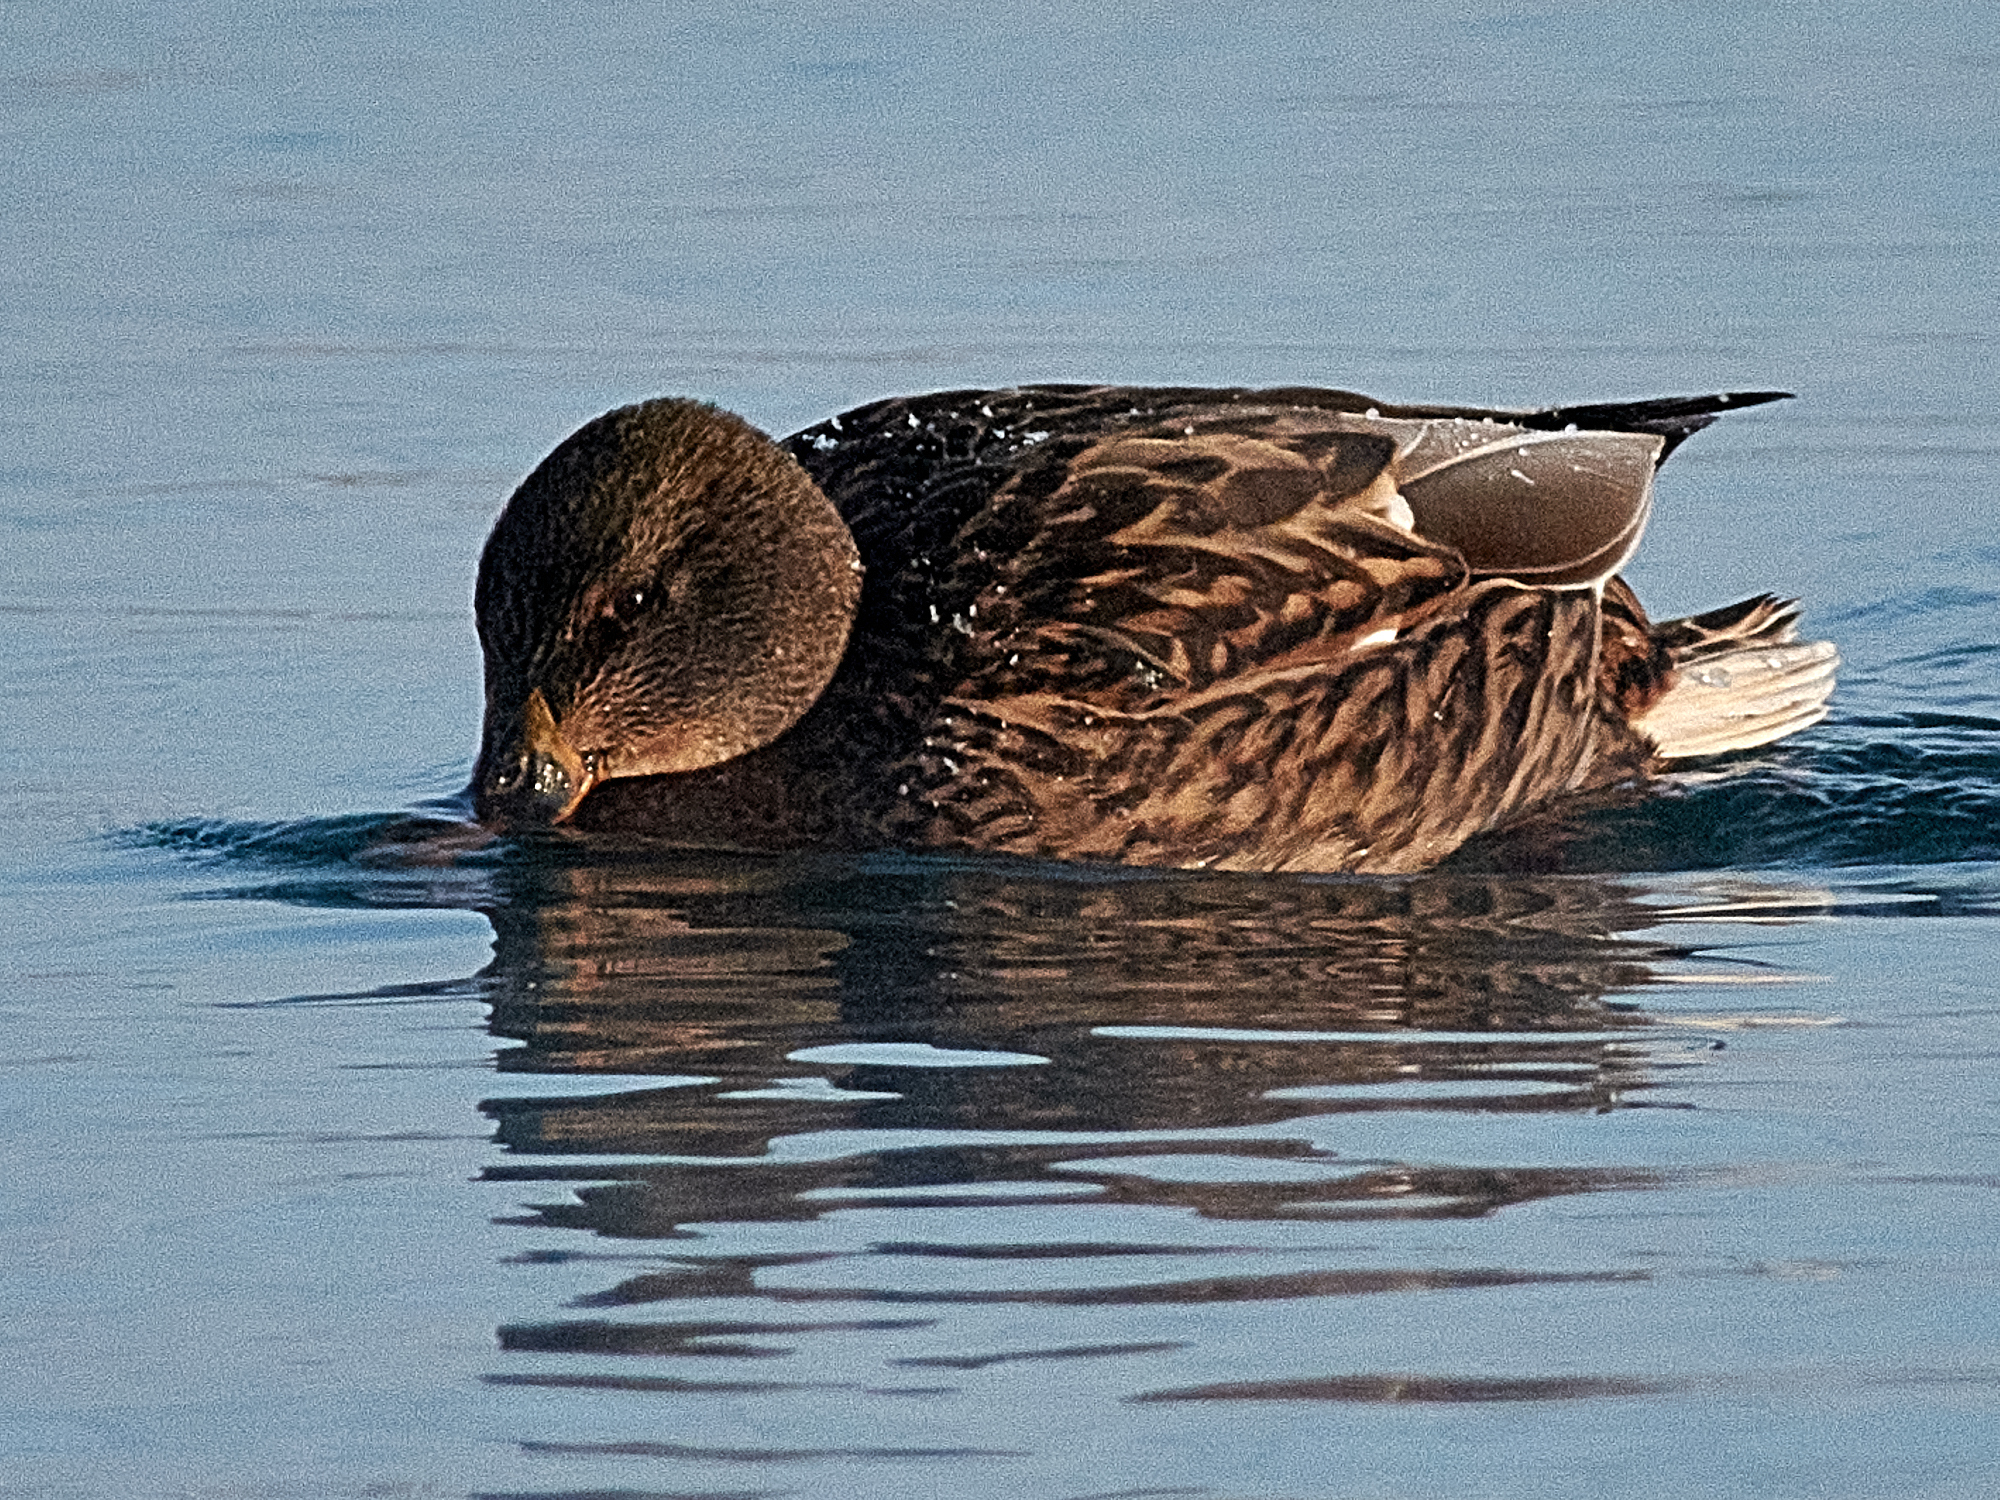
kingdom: Animalia
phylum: Chordata
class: Aves
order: Anseriformes
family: Anatidae
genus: Anas
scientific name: Anas platyrhynchos
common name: Mallard
